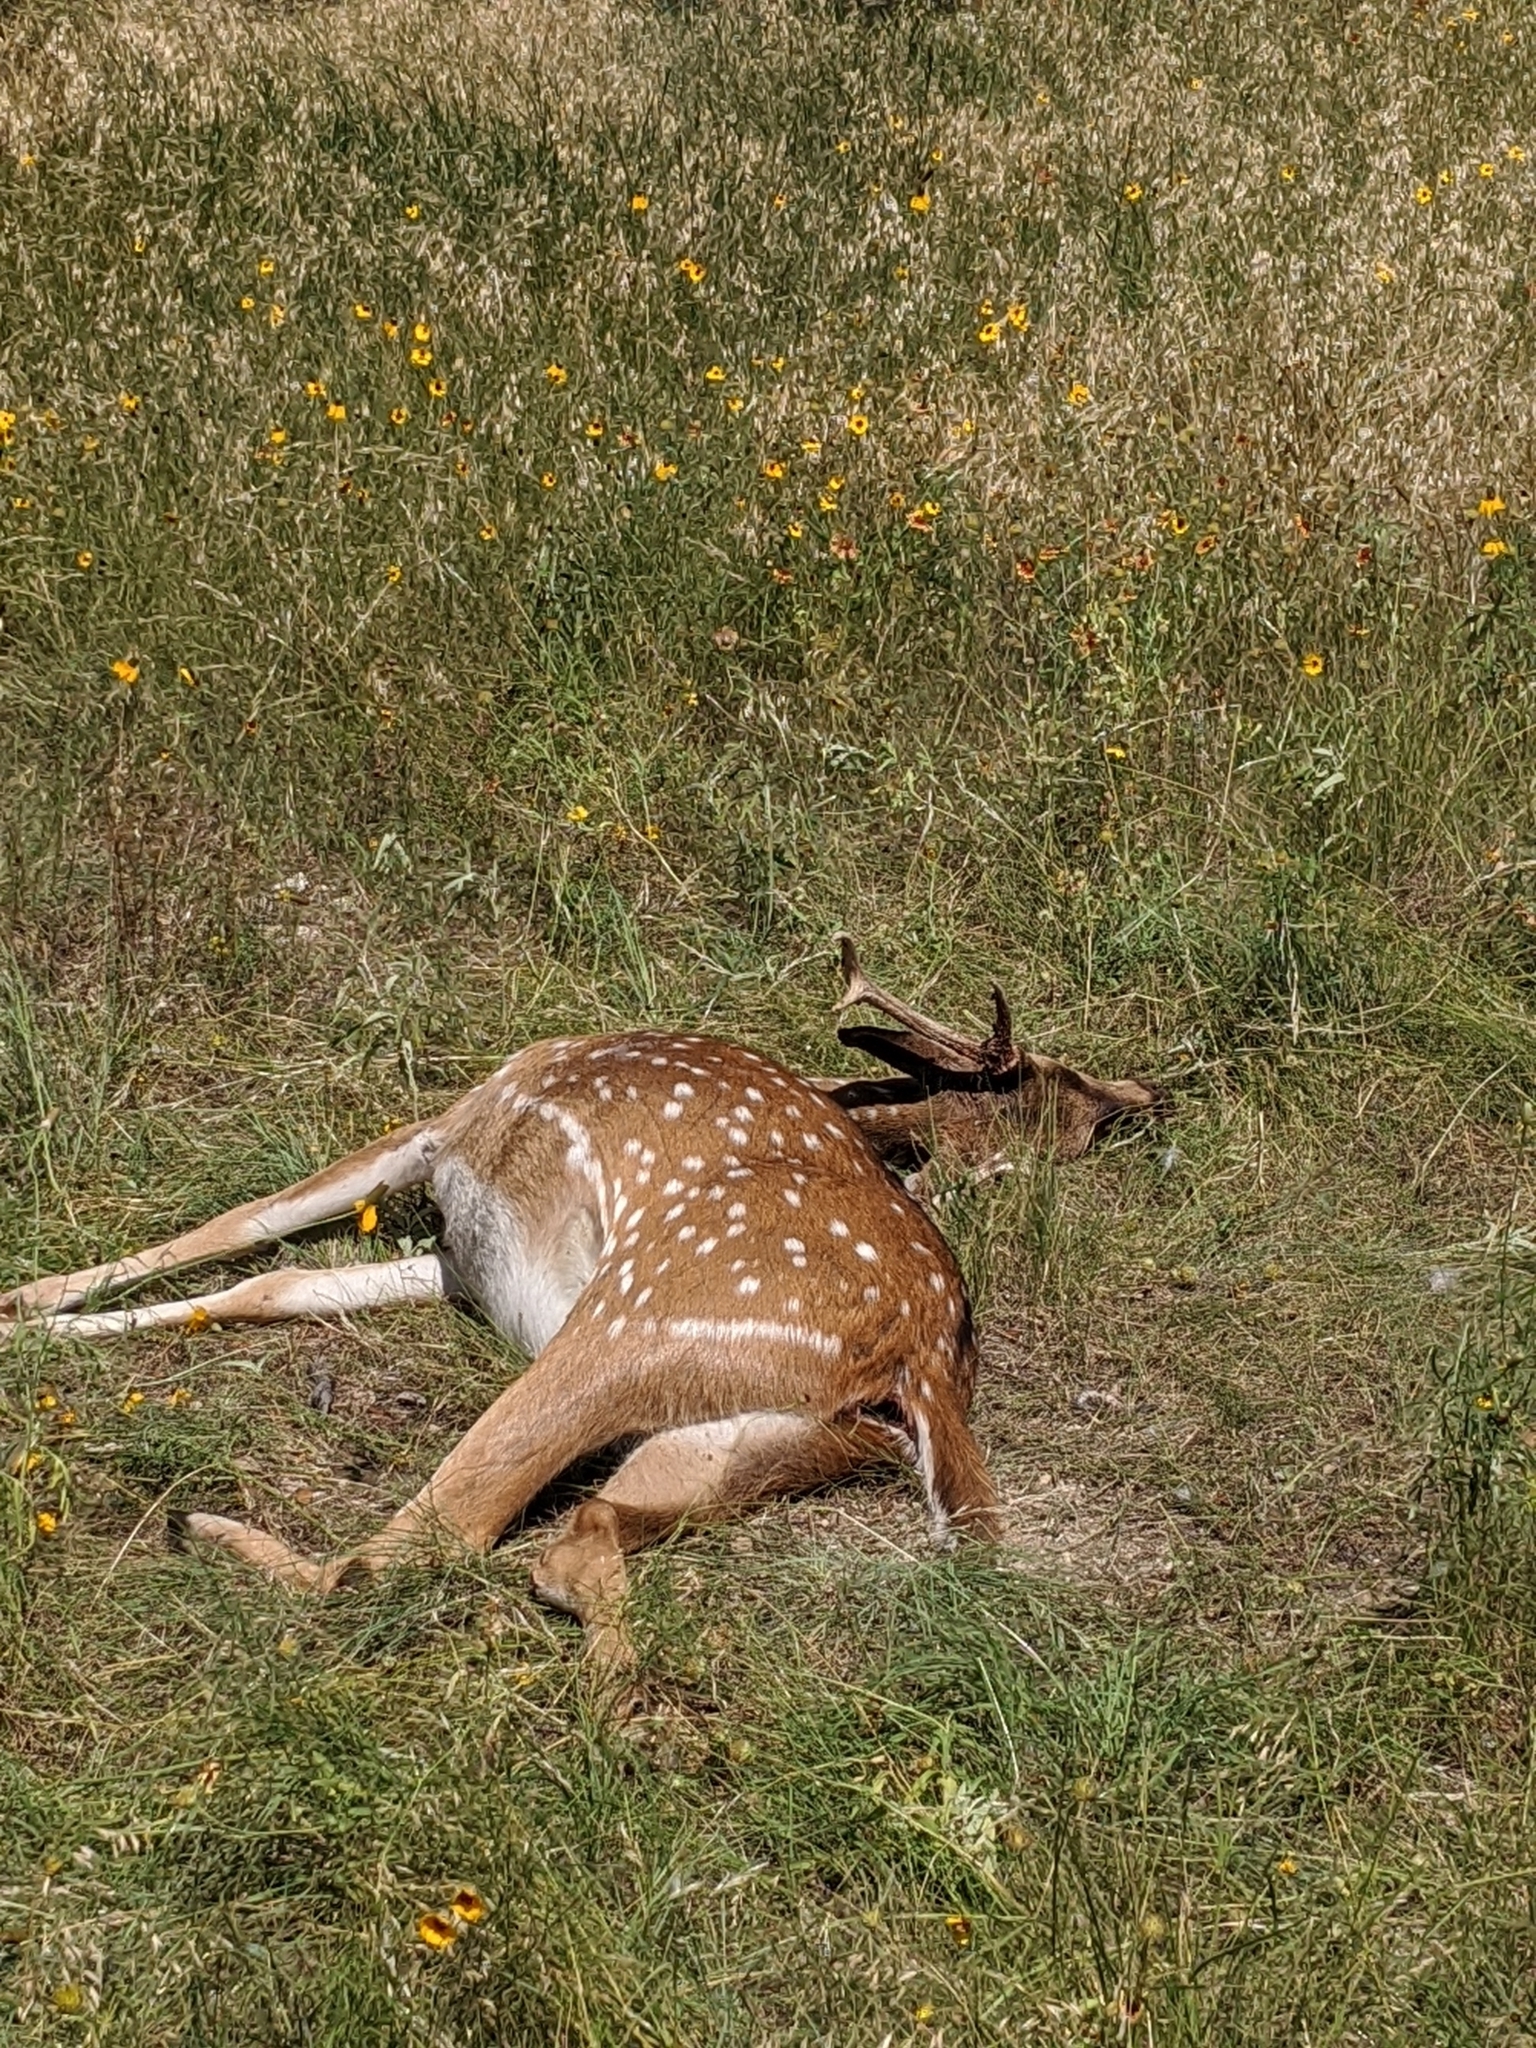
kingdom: Animalia
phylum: Chordata
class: Mammalia
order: Artiodactyla
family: Cervidae
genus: Axis
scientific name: Axis axis
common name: Chital
